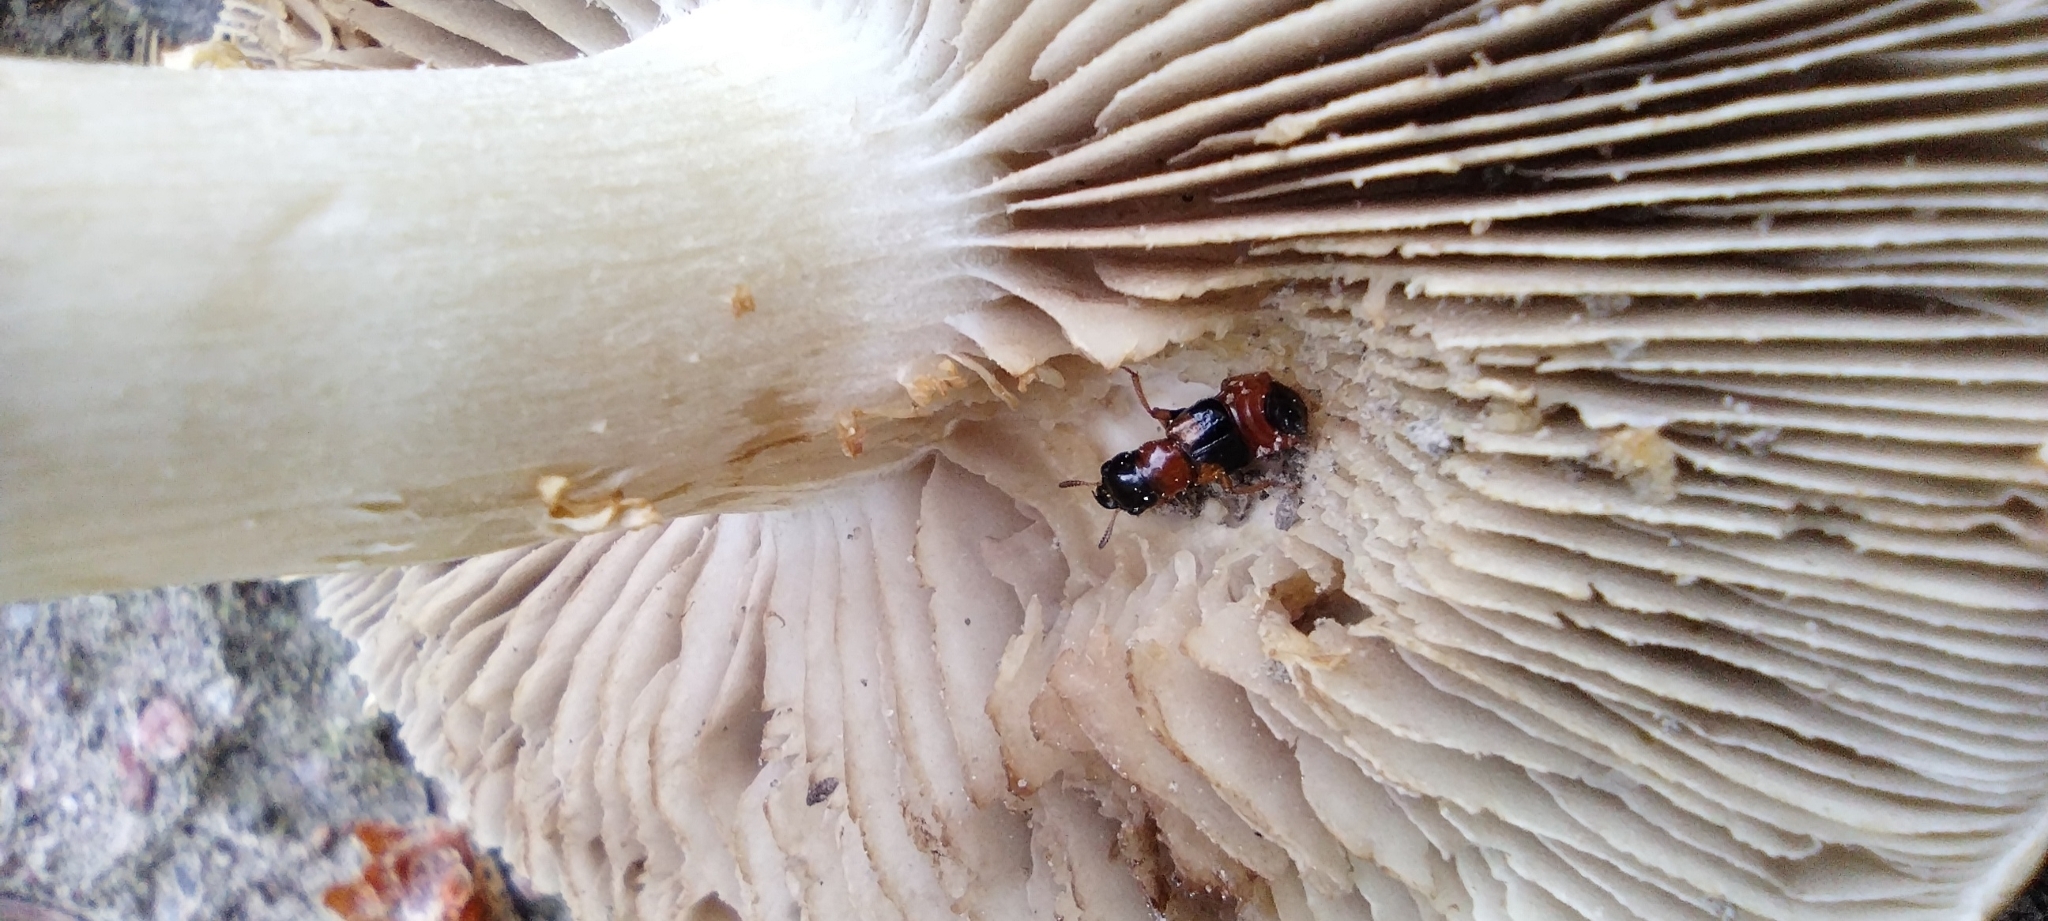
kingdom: Animalia
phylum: Arthropoda
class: Insecta
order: Coleoptera
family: Staphylinidae
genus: Oxyporus
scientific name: Oxyporus rufus
